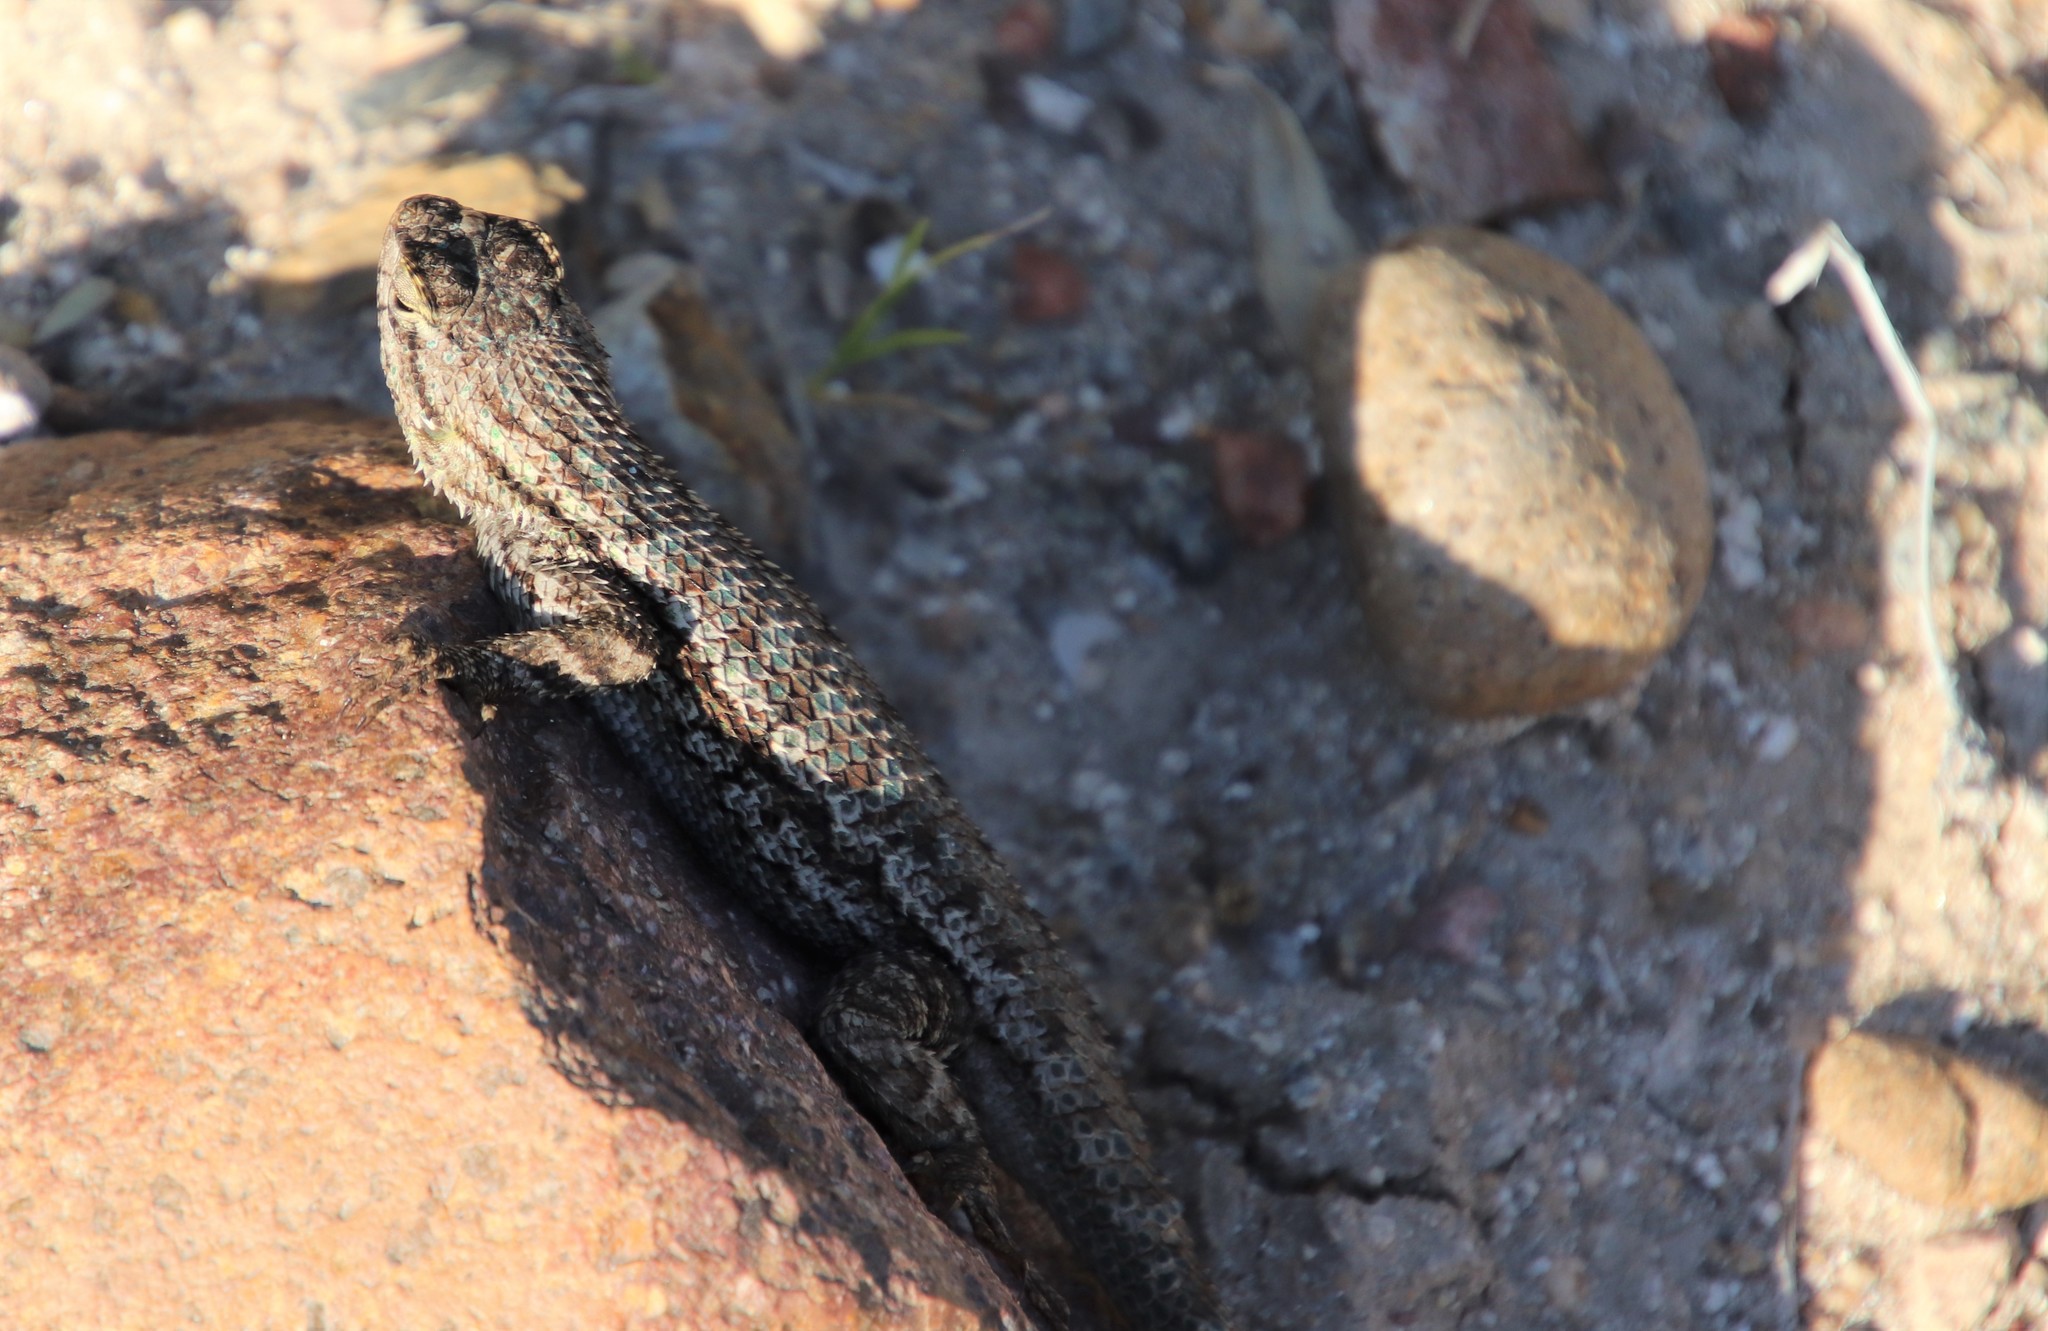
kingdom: Animalia
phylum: Chordata
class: Squamata
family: Phrynosomatidae
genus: Sceloporus
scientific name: Sceloporus occidentalis
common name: Western fence lizard
